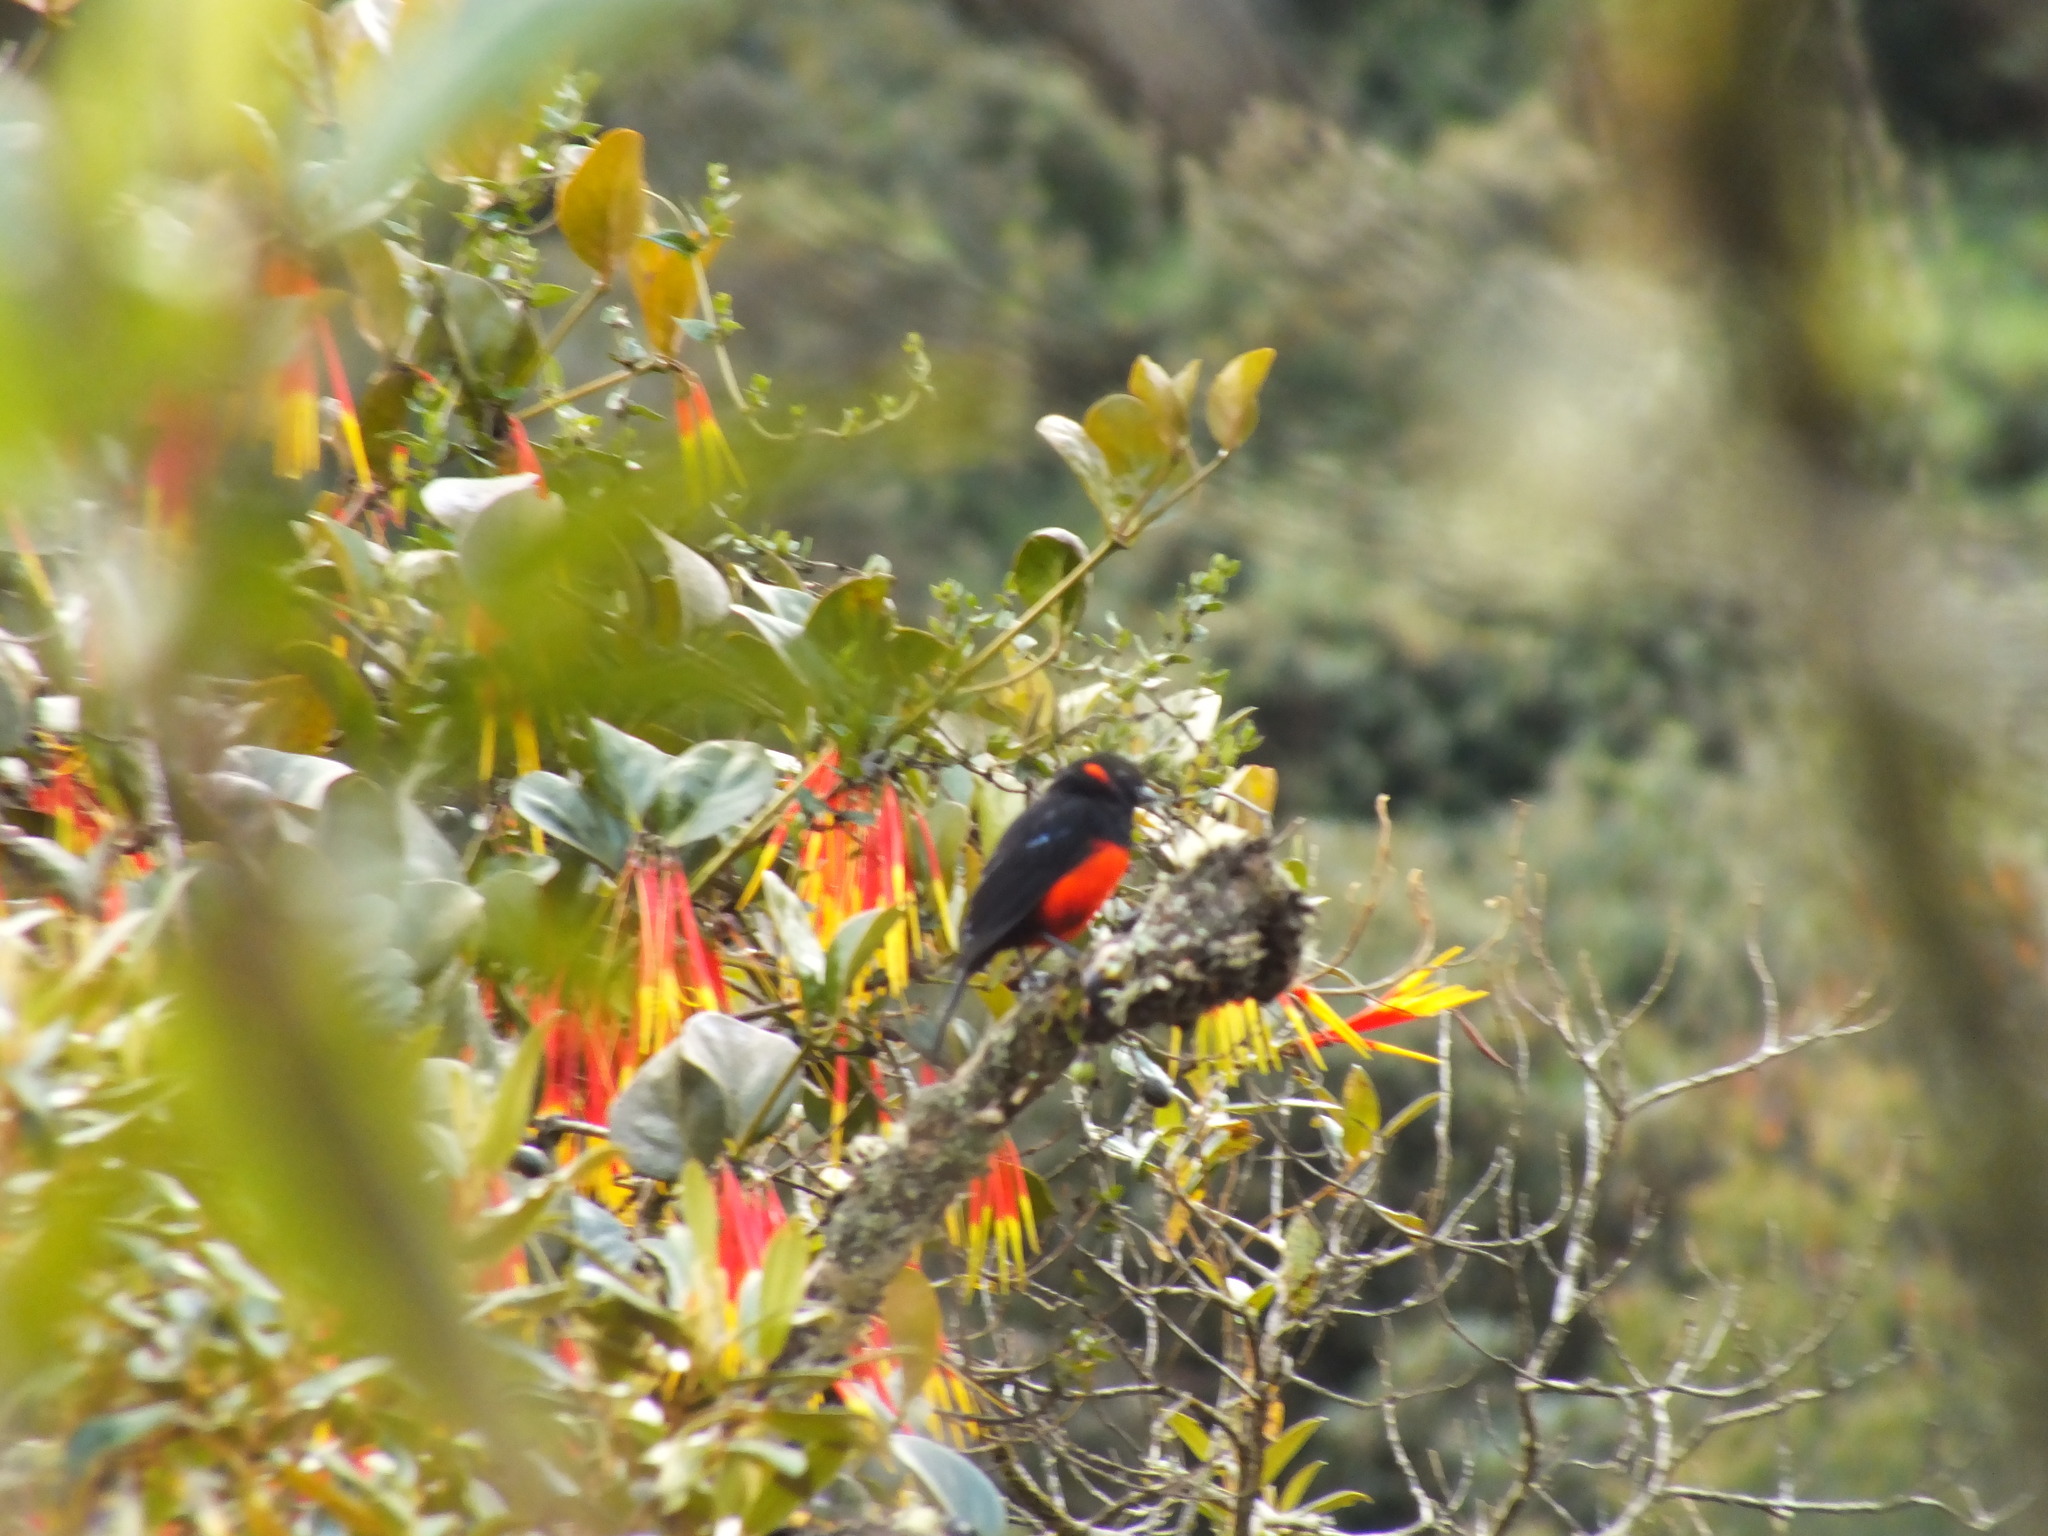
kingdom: Animalia
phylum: Chordata
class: Aves
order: Passeriformes
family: Thraupidae
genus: Anisognathus
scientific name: Anisognathus igniventris
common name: Scarlet-bellied mountain tanager
